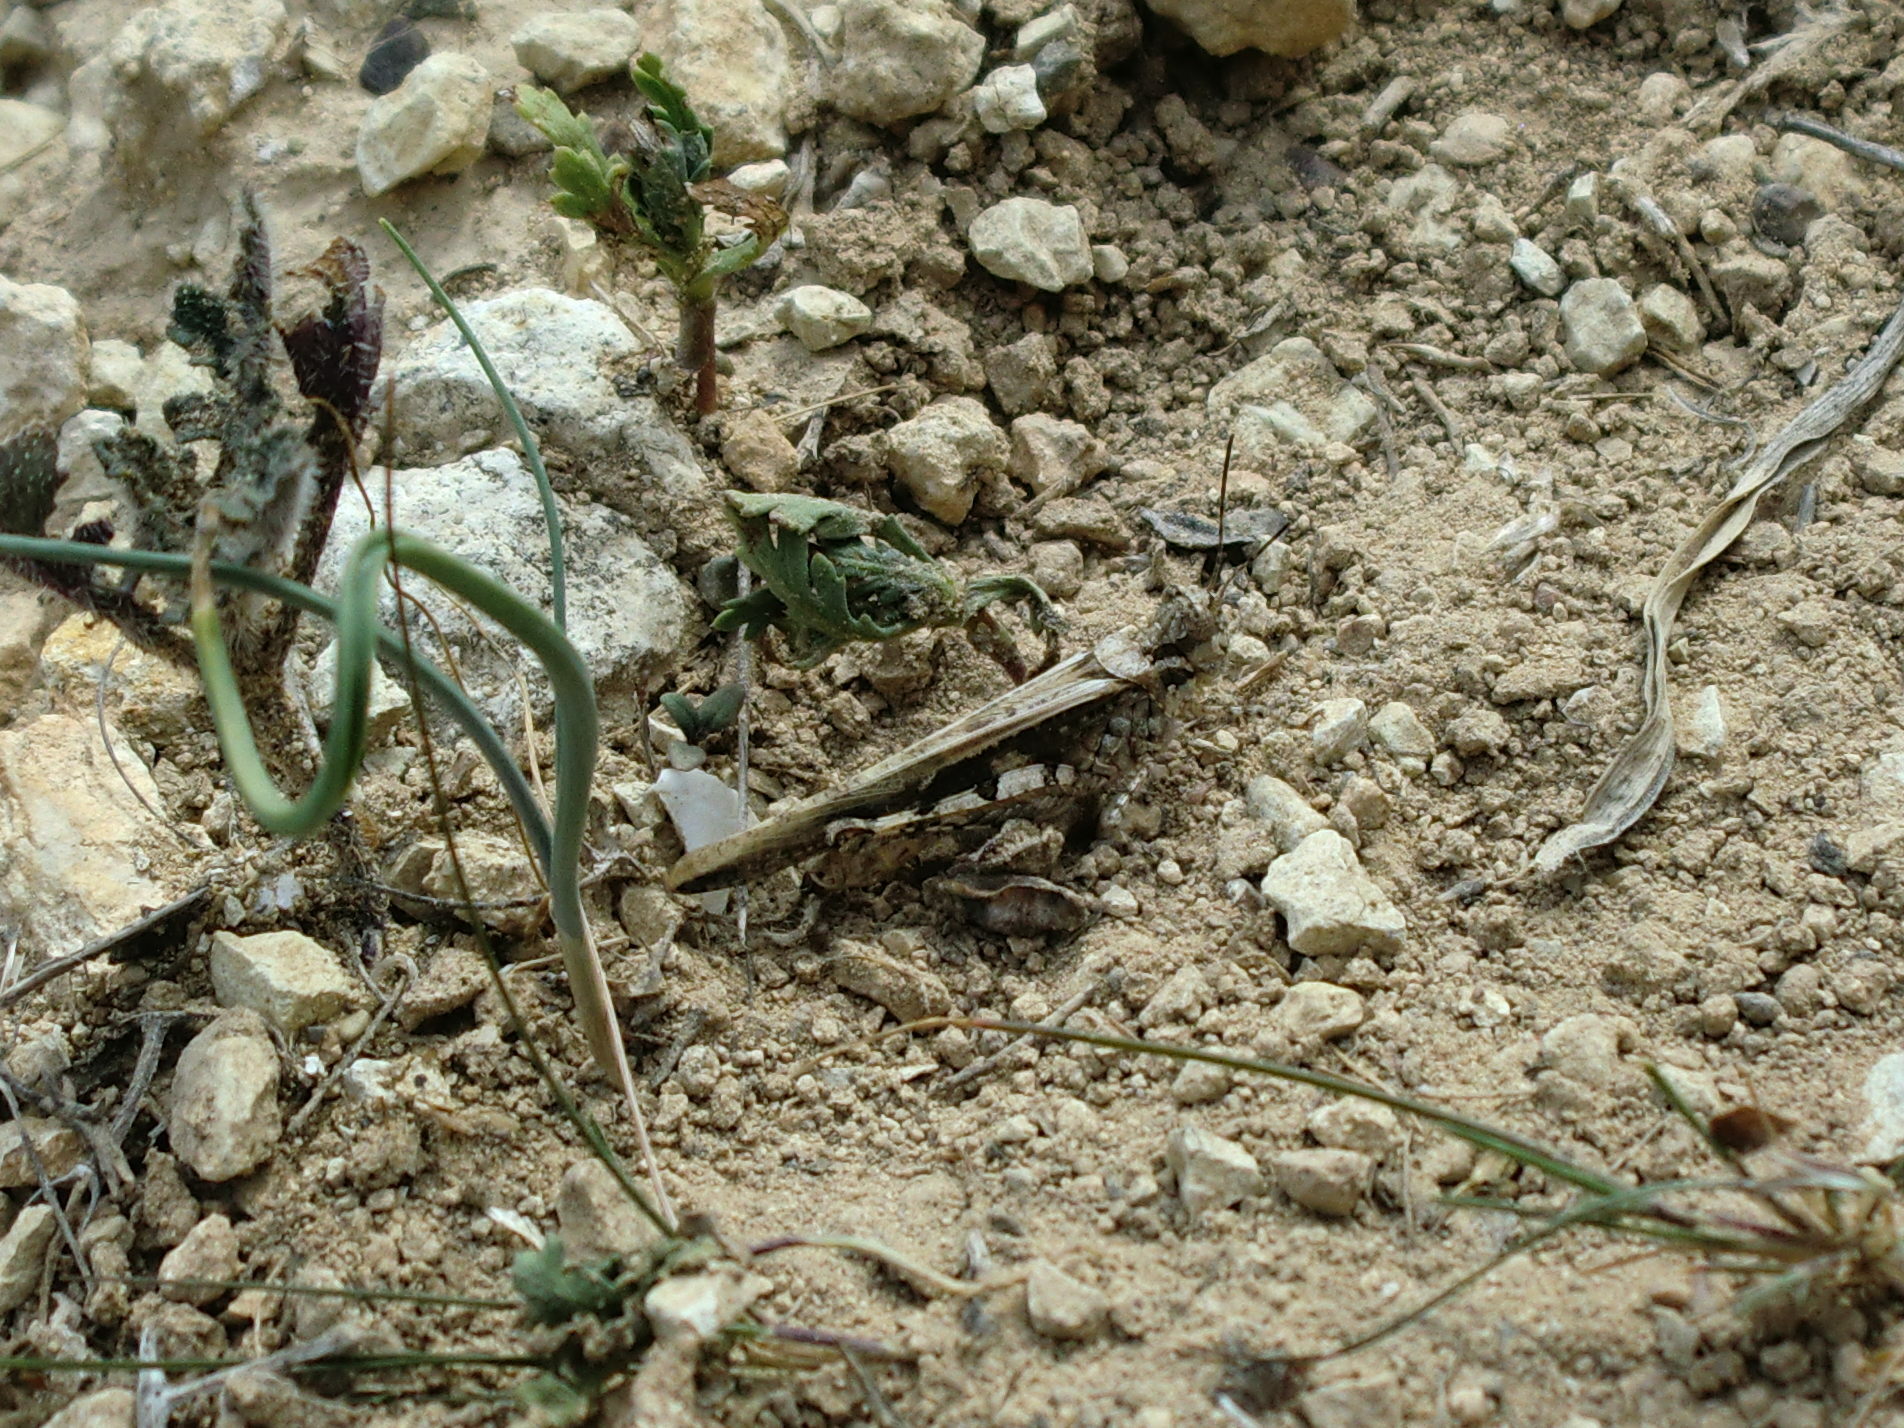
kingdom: Animalia
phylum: Arthropoda
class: Insecta
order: Orthoptera
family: Acrididae
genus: Acrotylus
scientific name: Acrotylus patruelis
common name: Slender burrowing grasshopper
